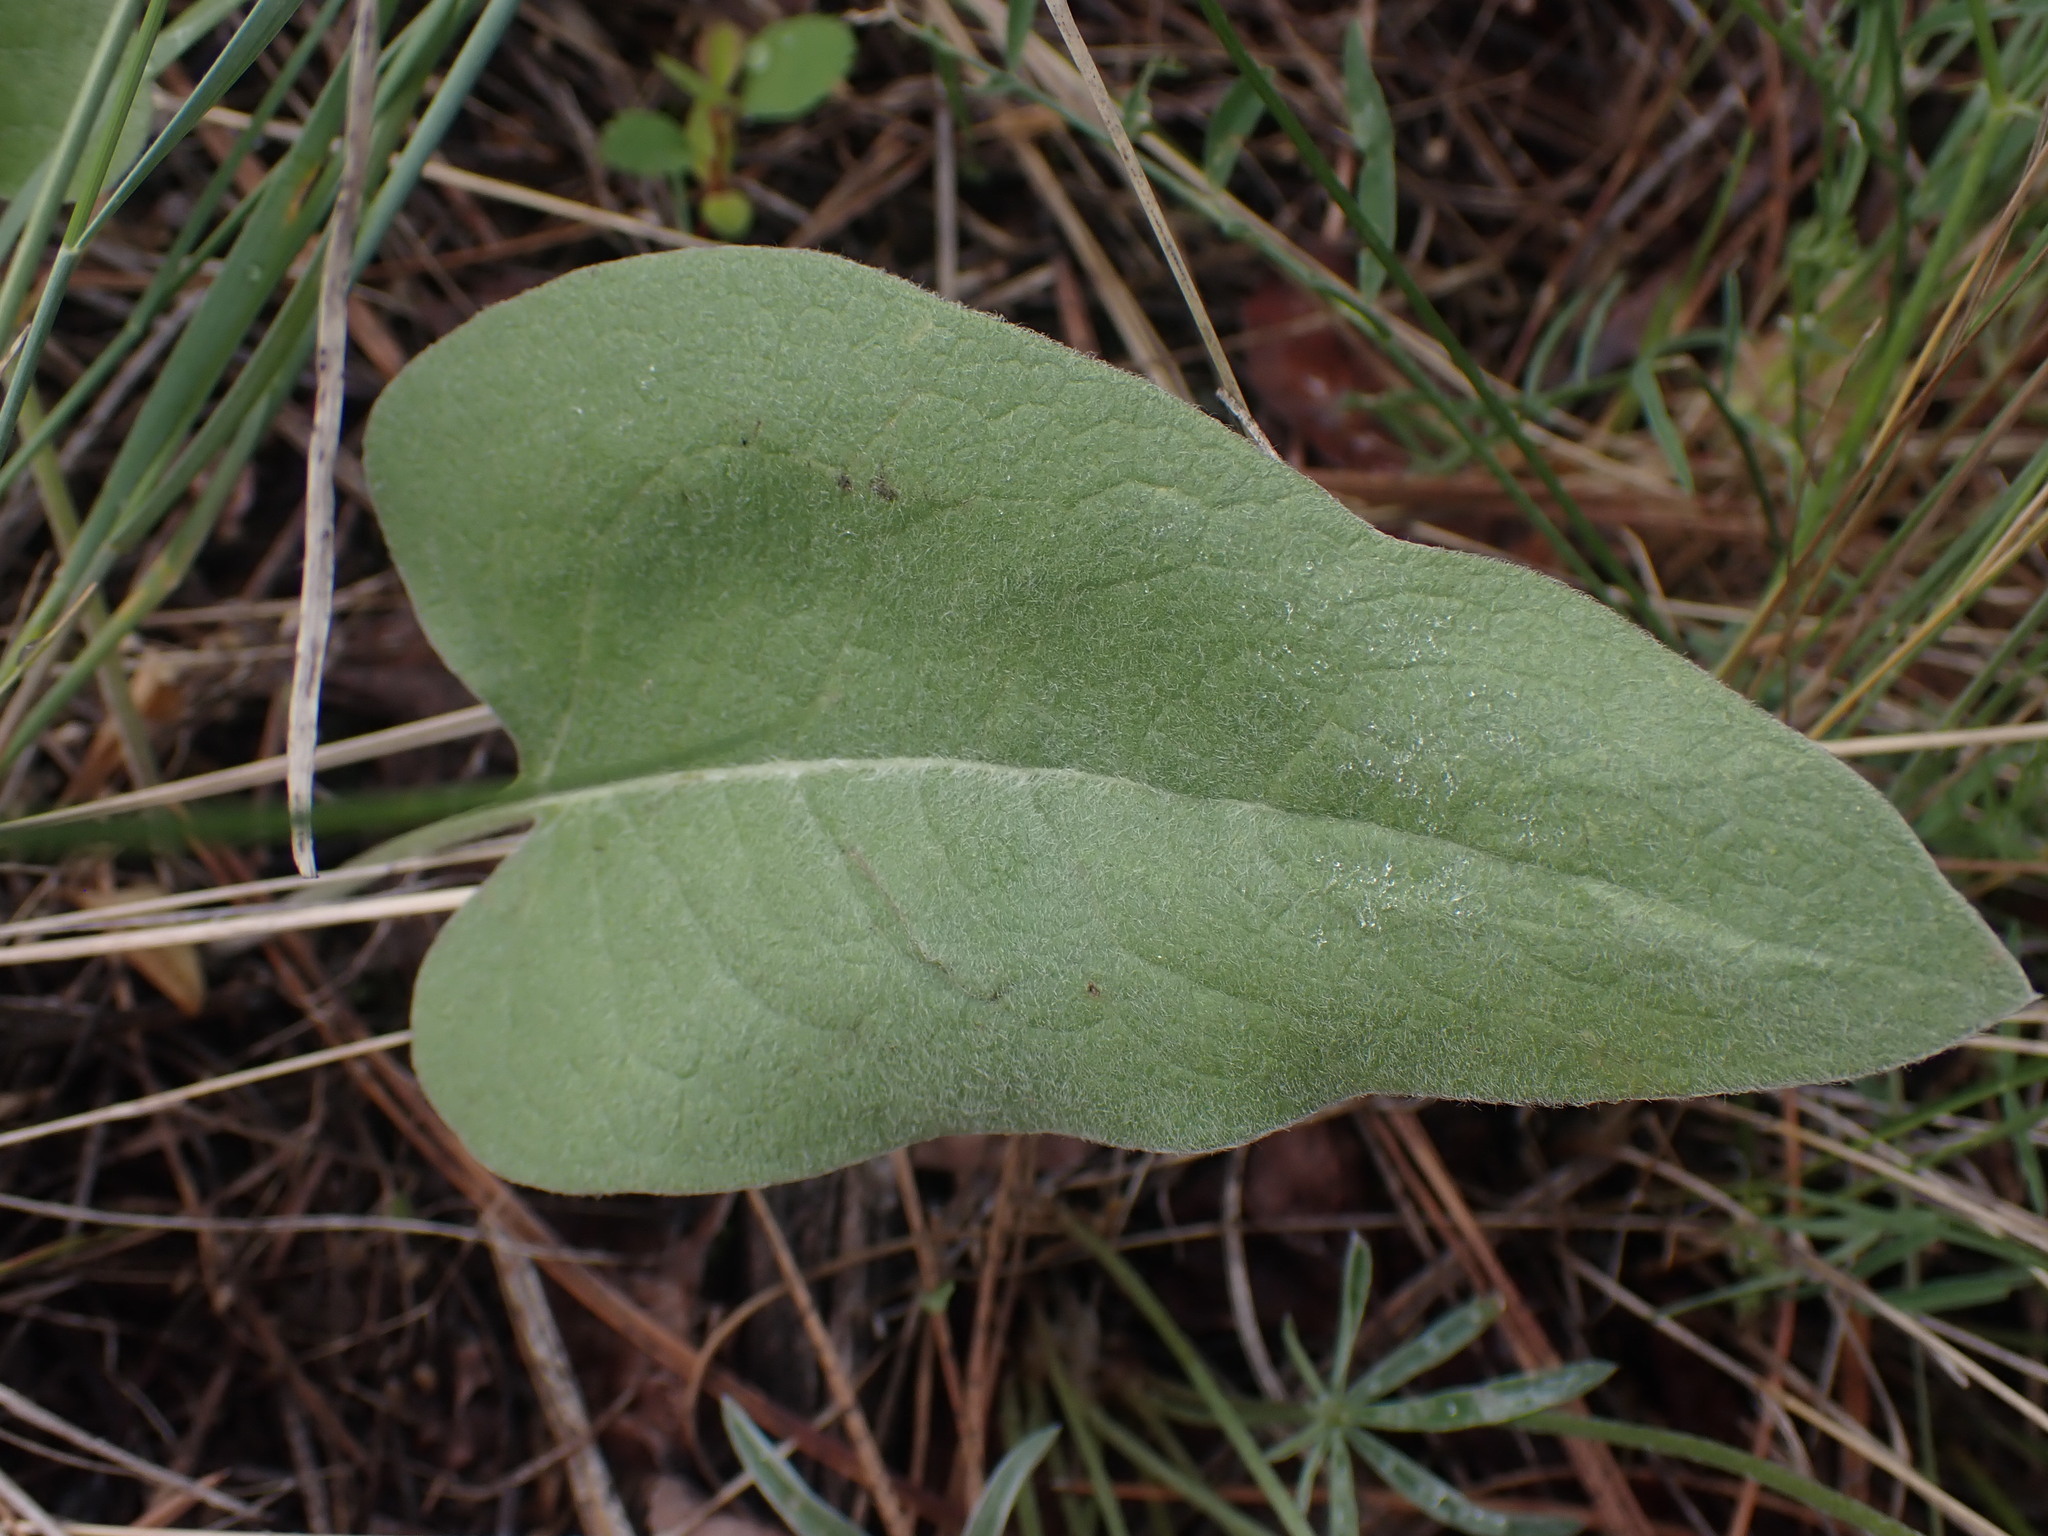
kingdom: Plantae
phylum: Tracheophyta
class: Magnoliopsida
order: Asterales
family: Asteraceae
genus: Wyethia
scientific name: Wyethia sagittata
